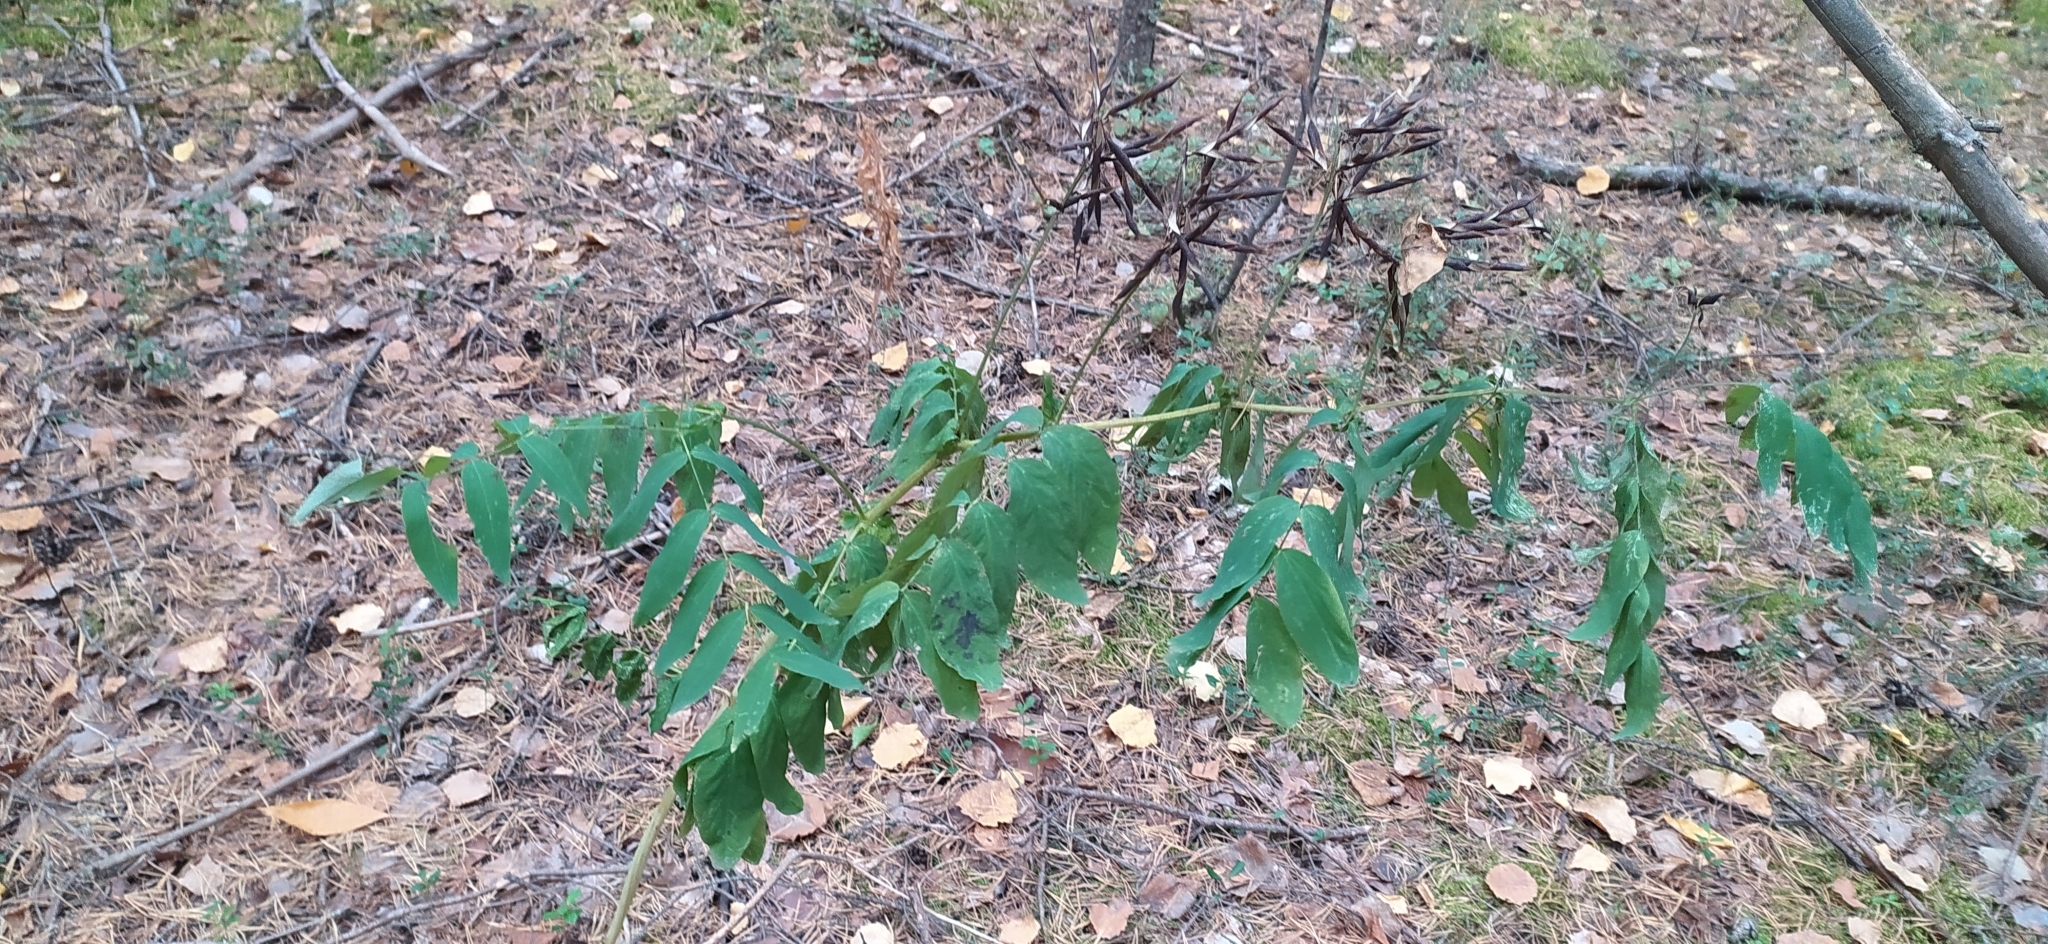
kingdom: Plantae
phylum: Tracheophyta
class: Magnoliopsida
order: Fabales
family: Fabaceae
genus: Lathyrus
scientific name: Lathyrus gmelinii
